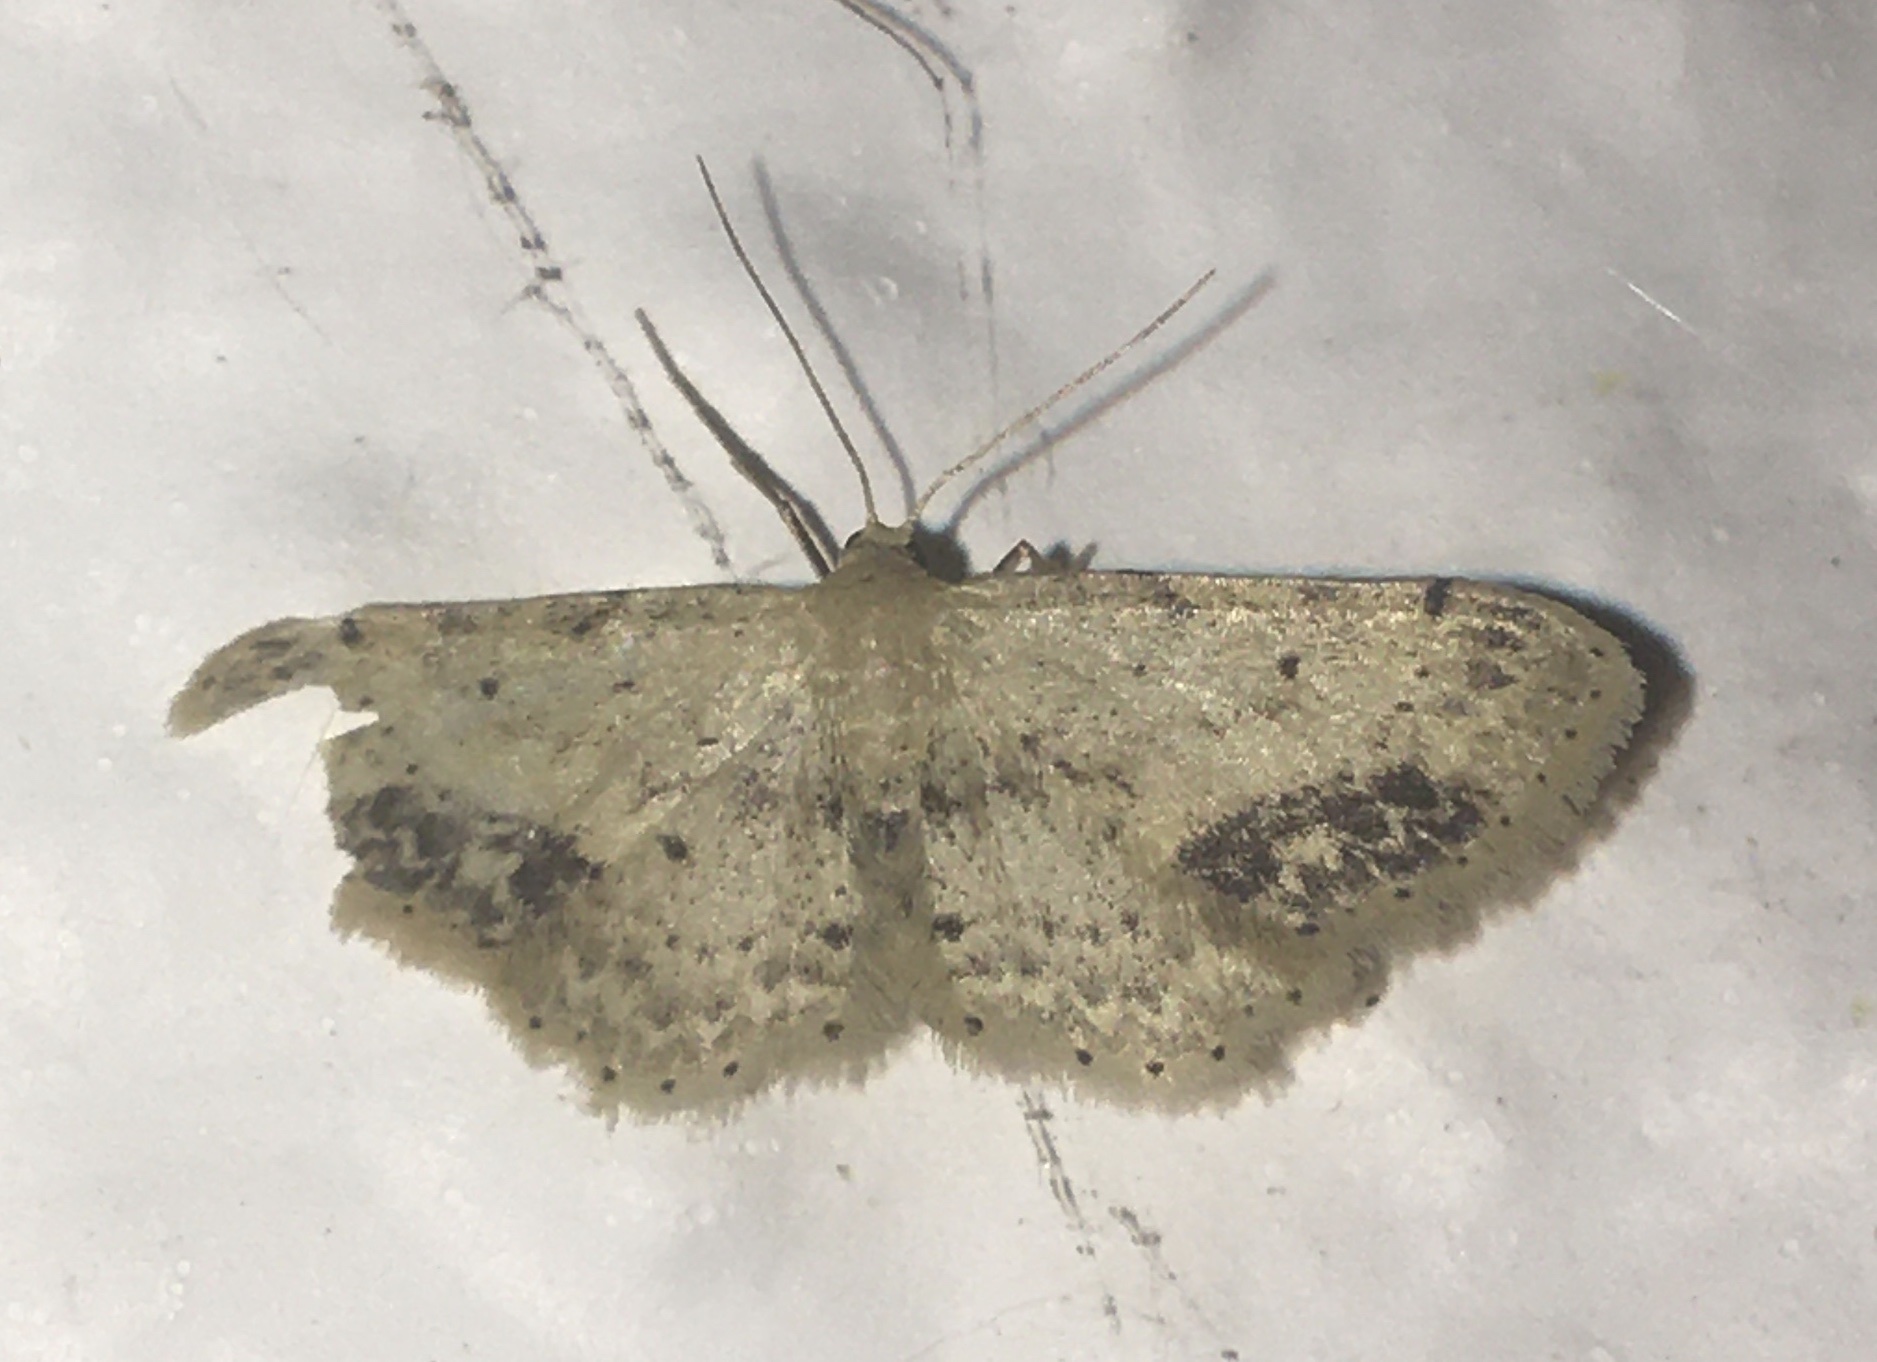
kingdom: Animalia
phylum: Arthropoda
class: Insecta
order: Lepidoptera
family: Geometridae
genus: Idaea
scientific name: Idaea dimidiata
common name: Single-dotted wave
